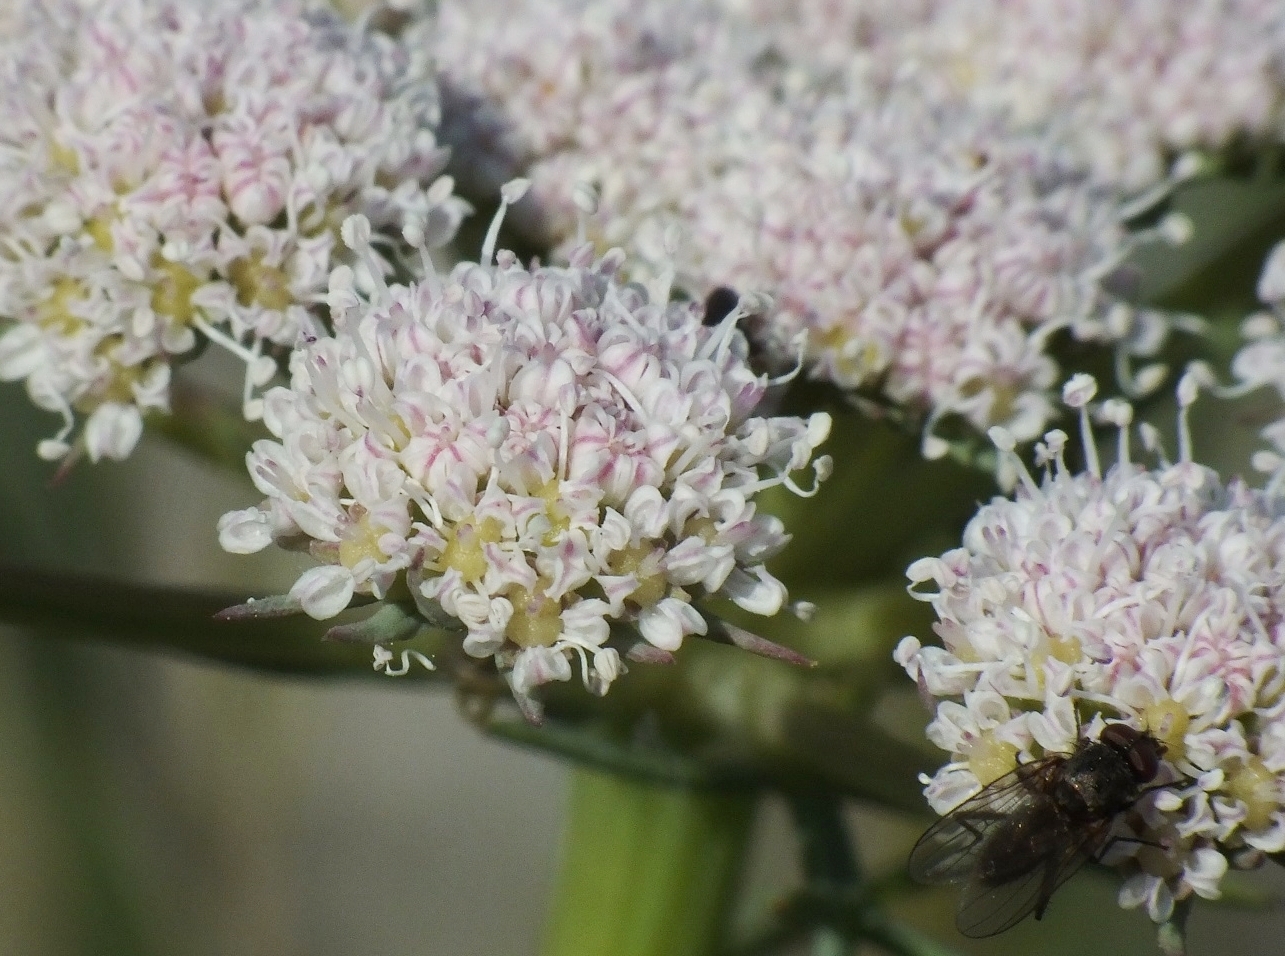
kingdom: Plantae
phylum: Tracheophyta
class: Magnoliopsida
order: Apiales
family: Apiaceae
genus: Seseli
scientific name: Seseli lehmannii
